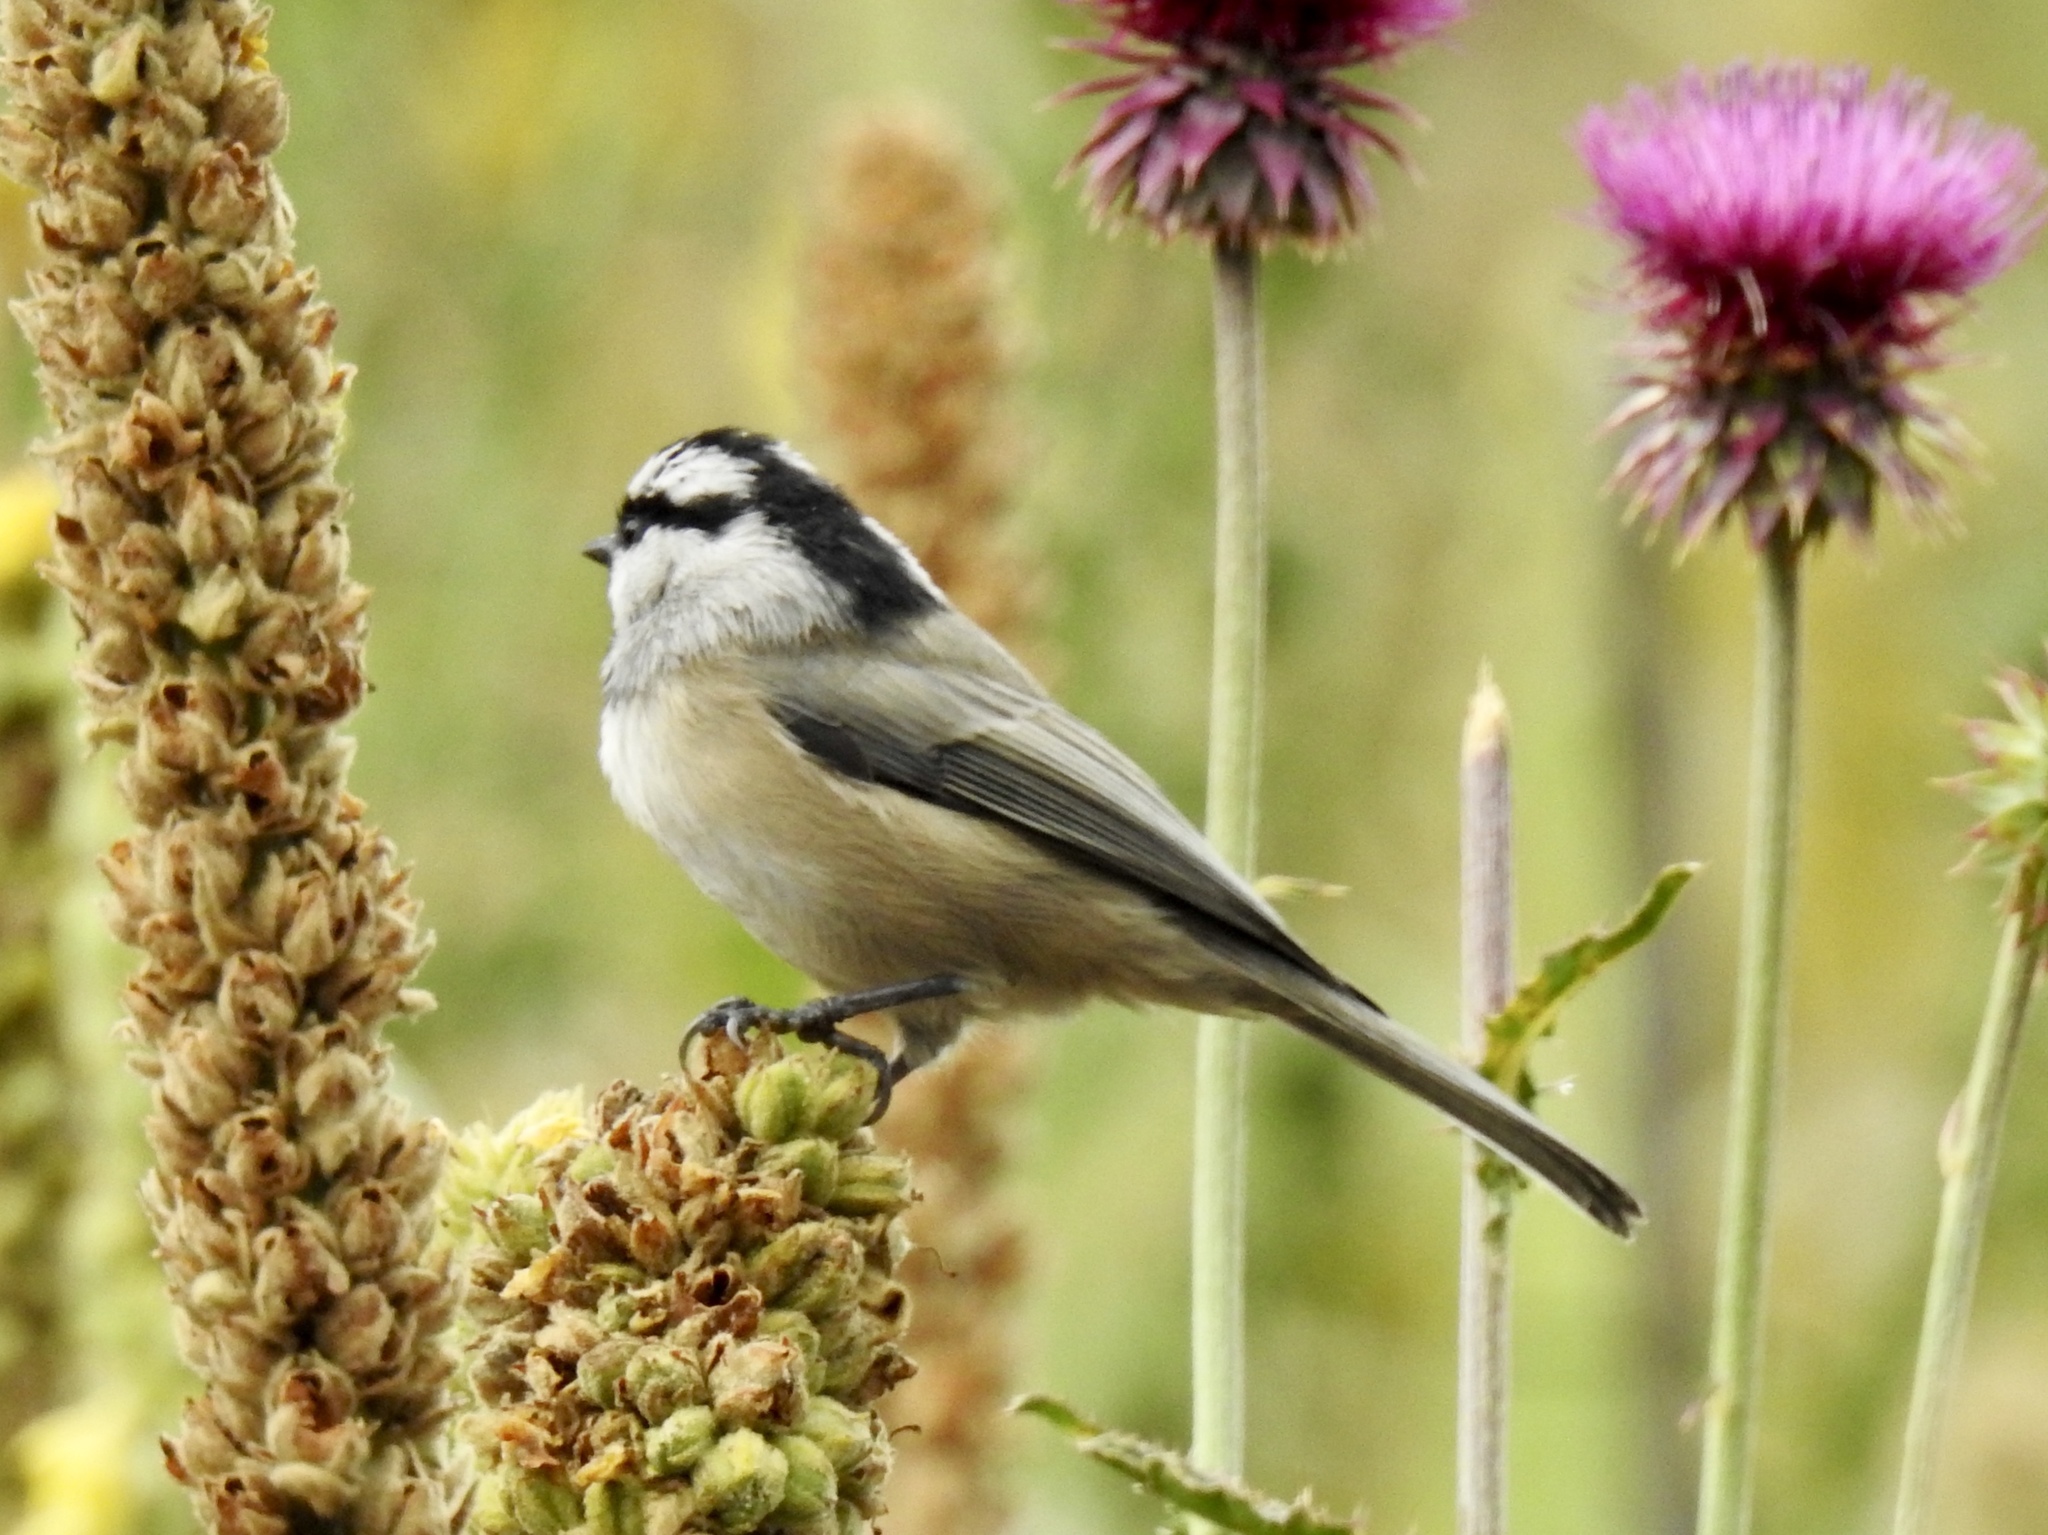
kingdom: Animalia
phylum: Chordata
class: Aves
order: Passeriformes
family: Paridae
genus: Poecile
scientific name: Poecile gambeli
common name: Mountain chickadee
